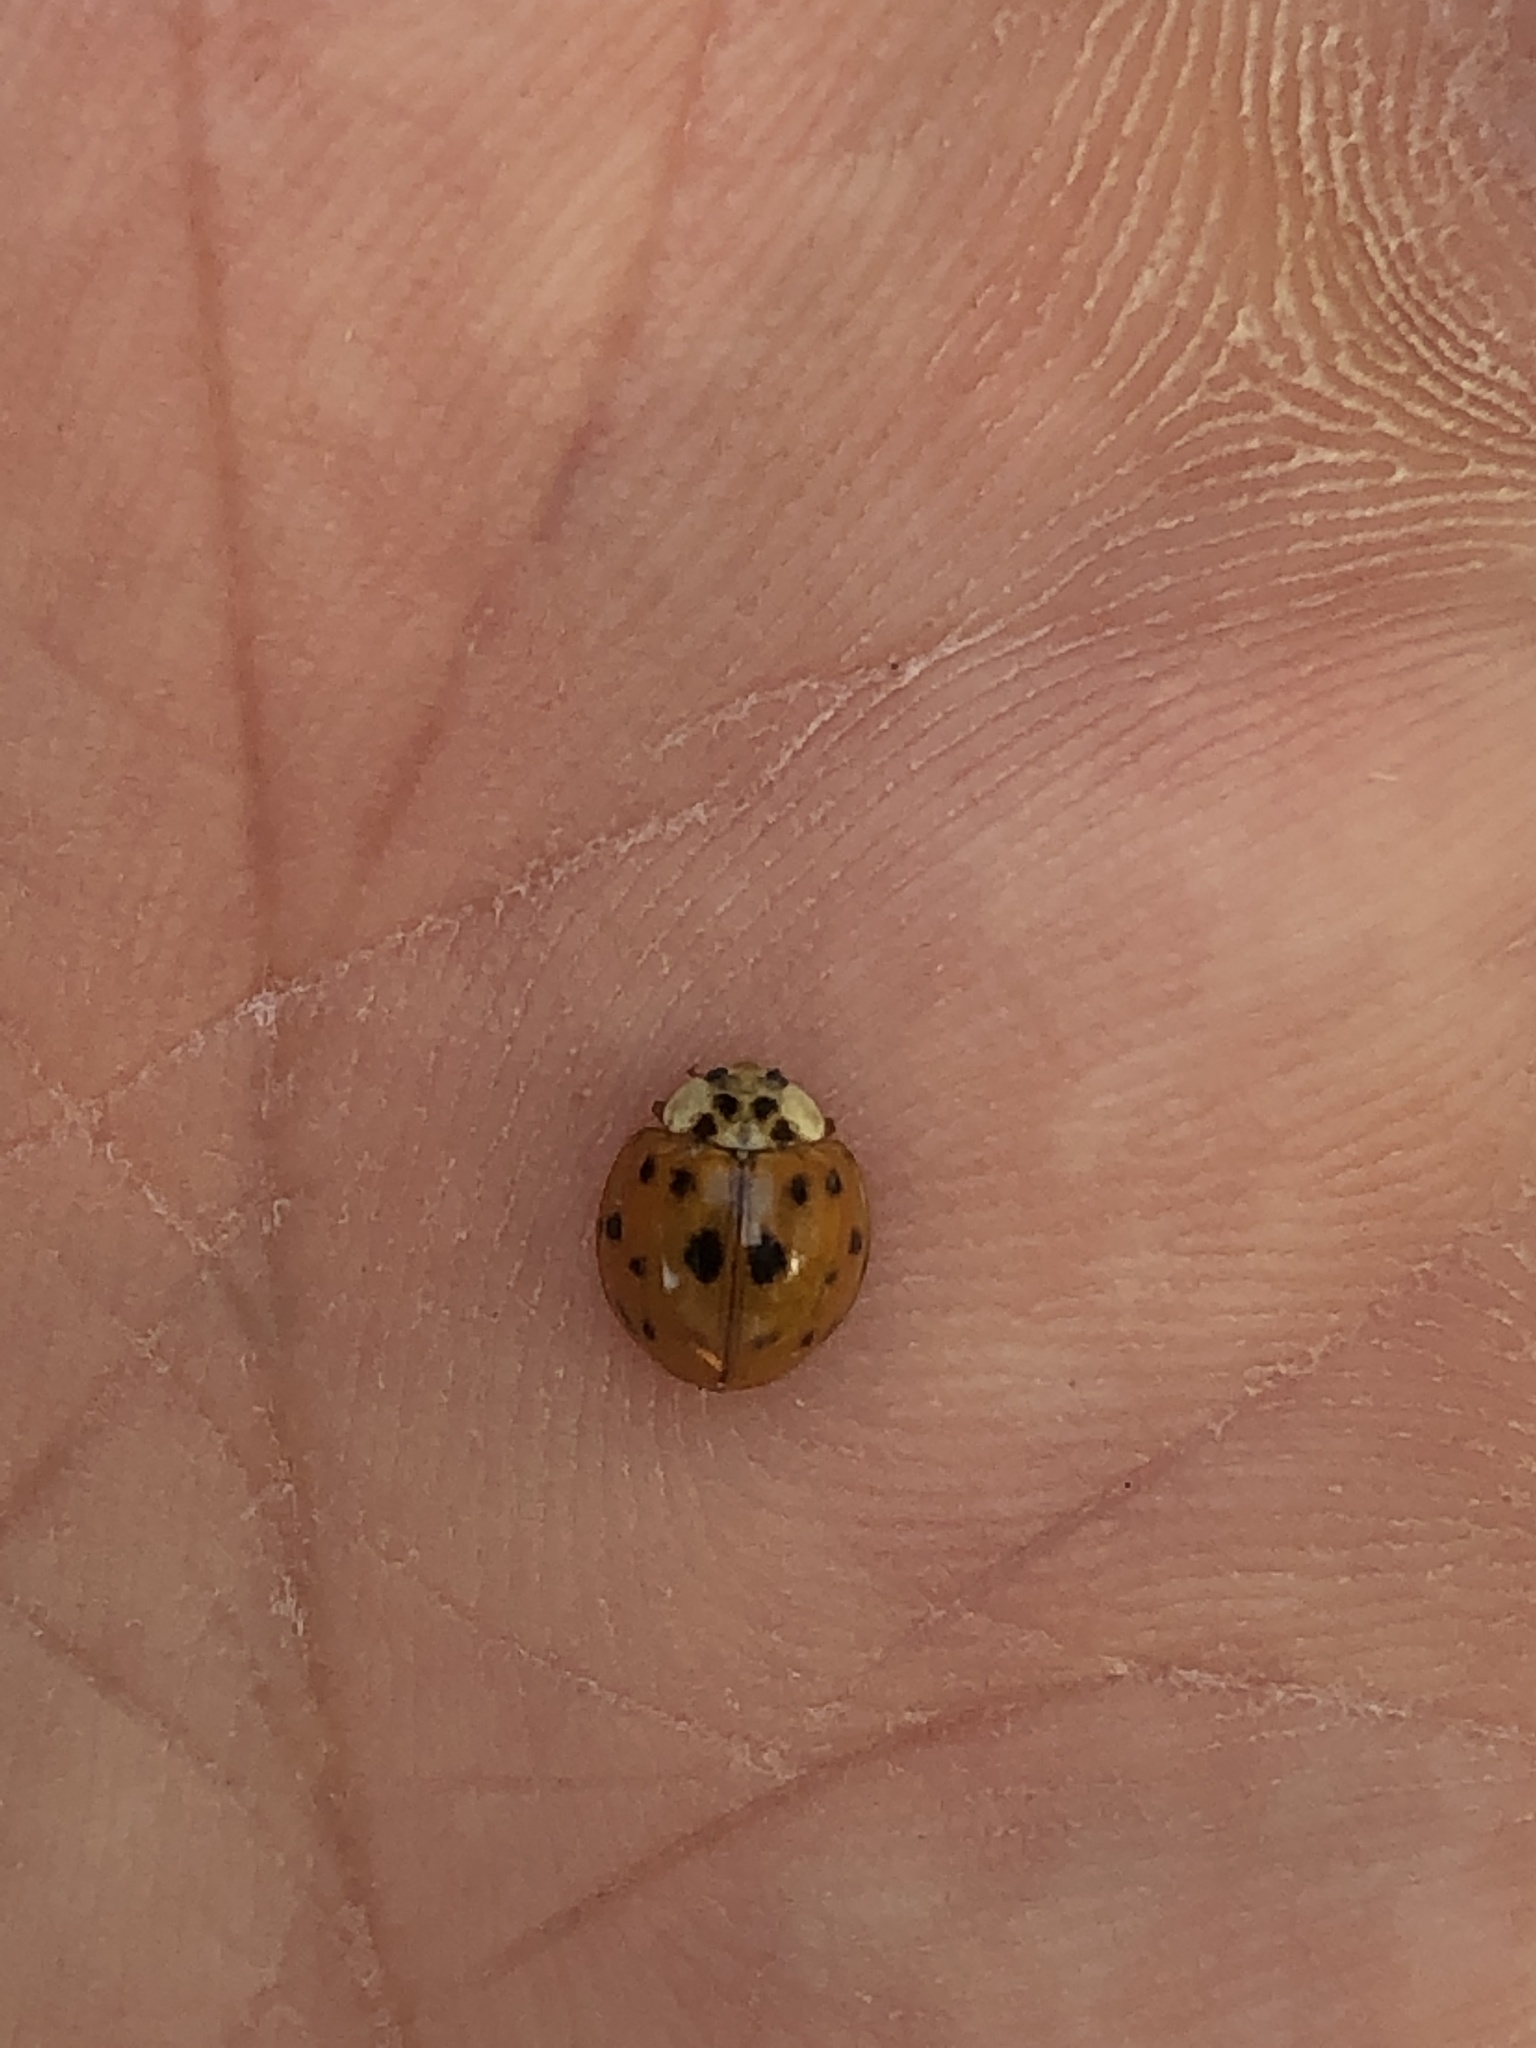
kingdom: Animalia
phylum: Arthropoda
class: Insecta
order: Coleoptera
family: Coccinellidae
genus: Harmonia
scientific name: Harmonia axyridis
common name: Harlequin ladybird
